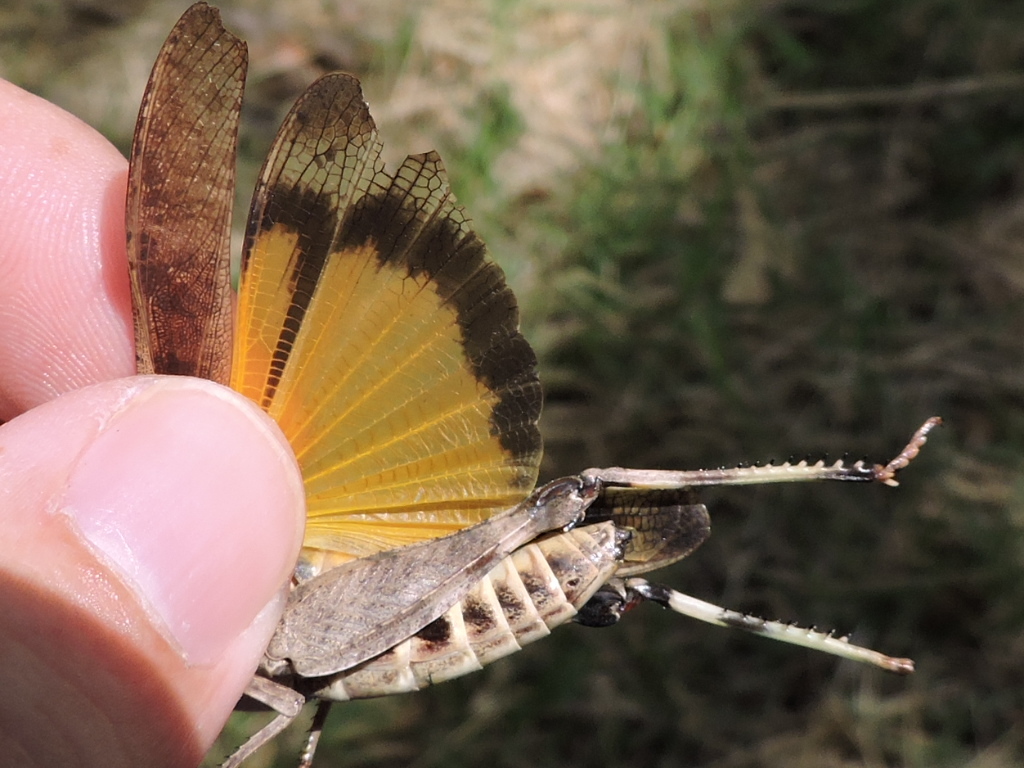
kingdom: Animalia
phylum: Arthropoda
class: Insecta
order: Orthoptera
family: Acrididae
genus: Arphia
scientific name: Arphia simplex
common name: Plains yellow-winged grasshopper
